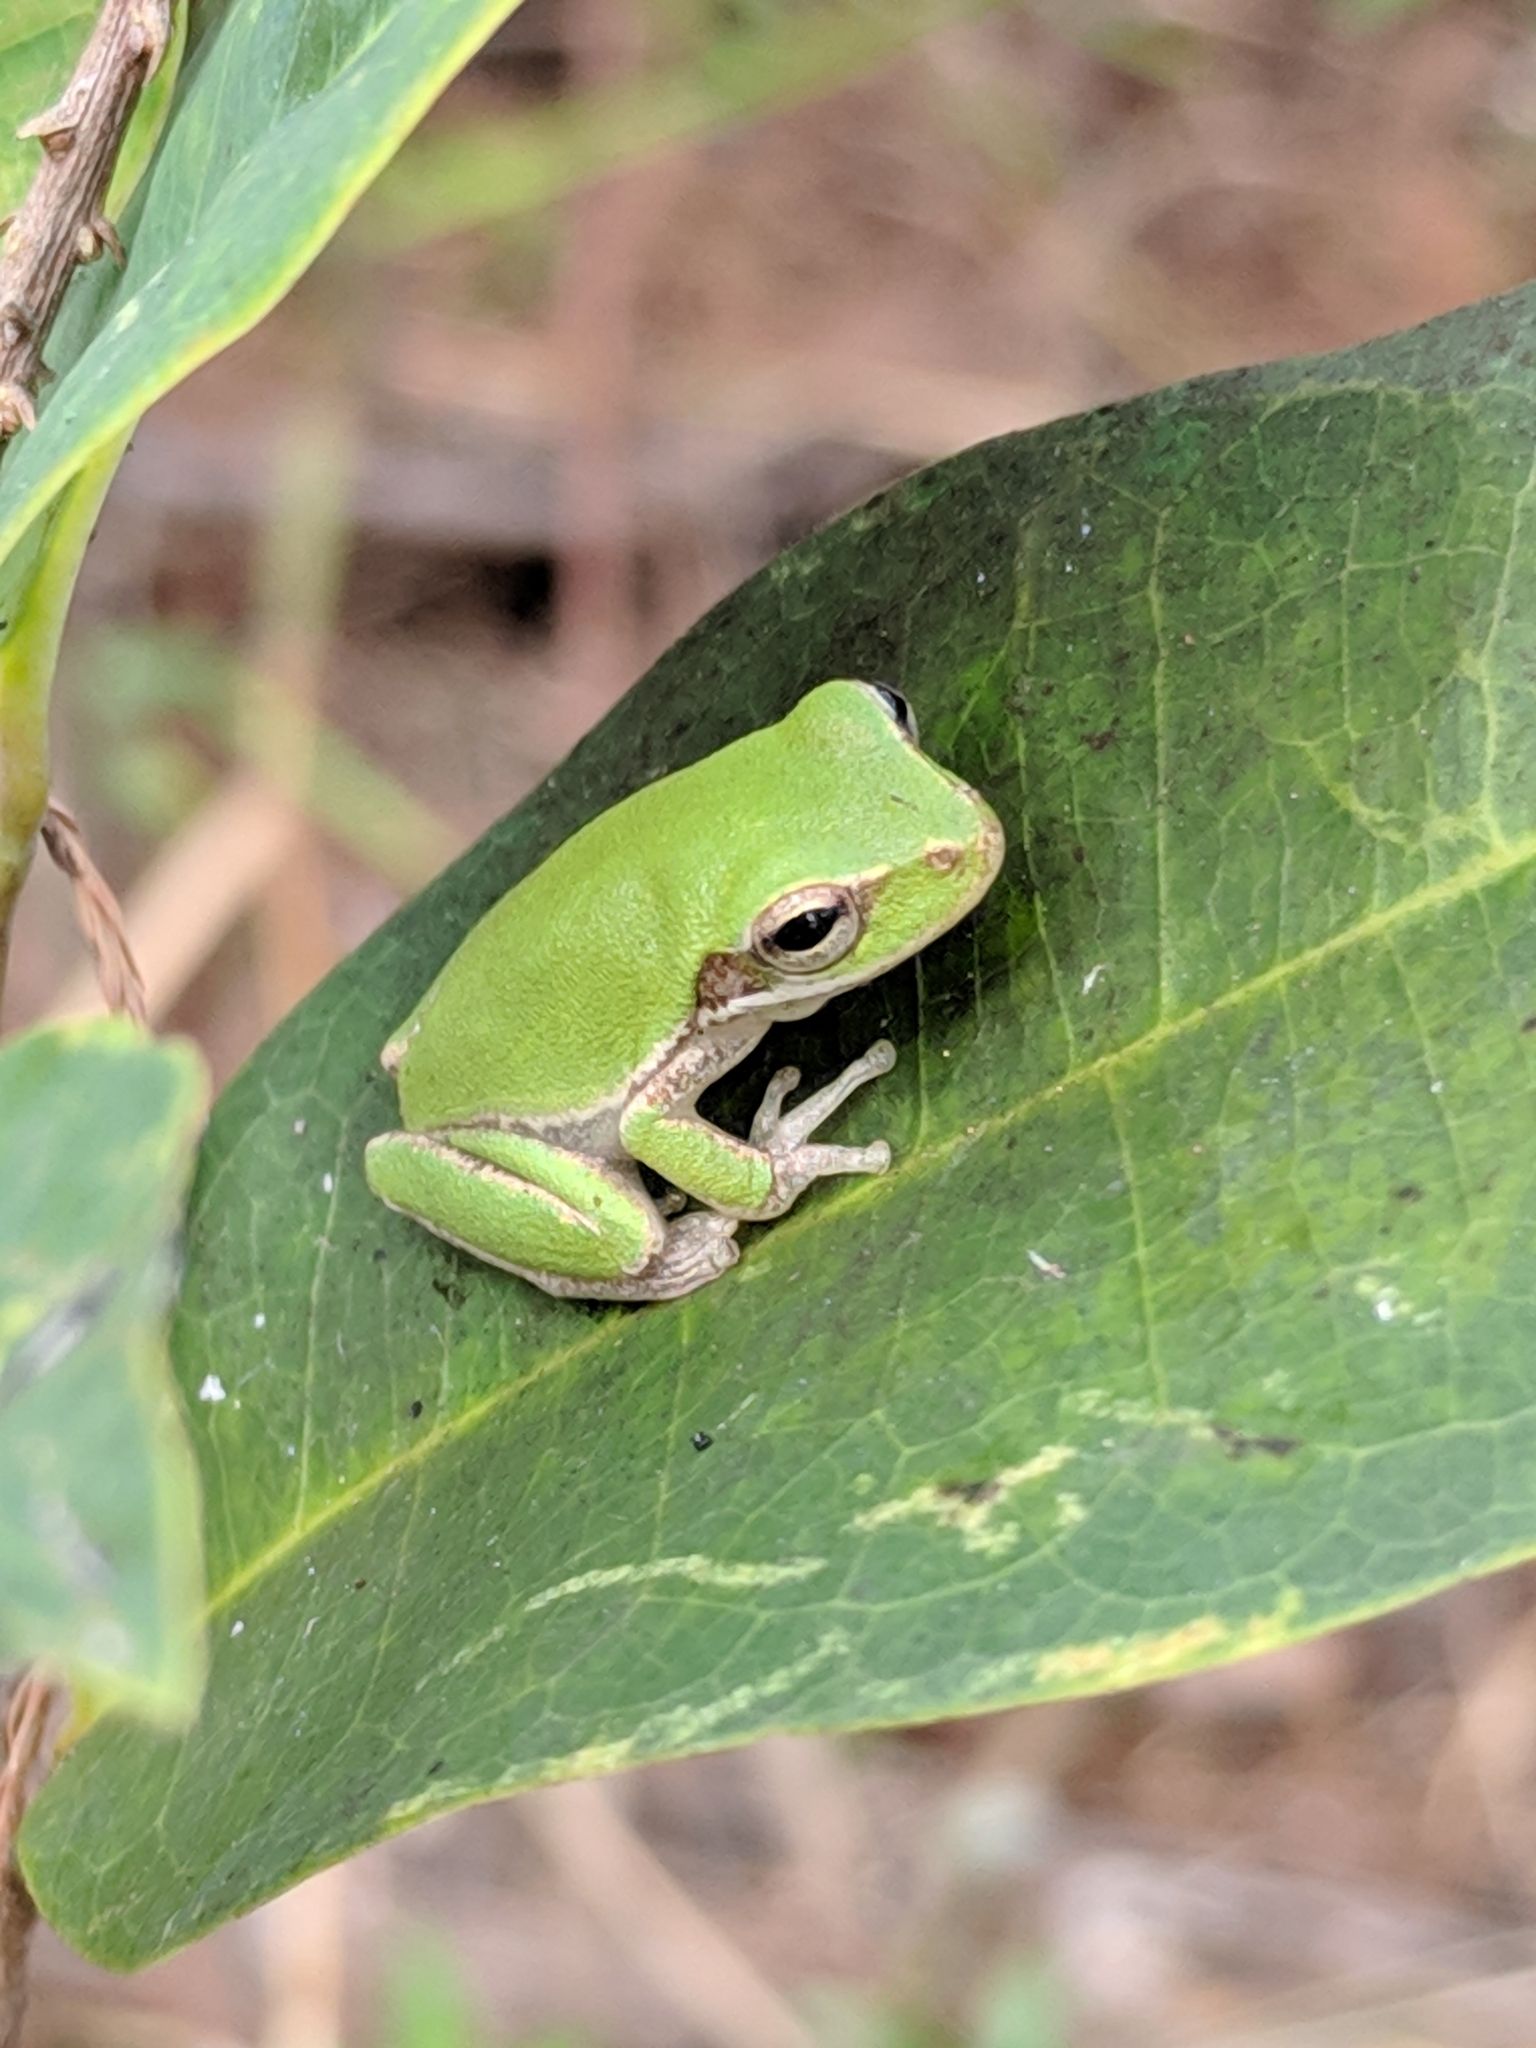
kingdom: Animalia
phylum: Chordata
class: Amphibia
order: Anura
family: Hylidae
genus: Dryophytes
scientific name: Dryophytes squirellus
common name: Squirrel treefrog
